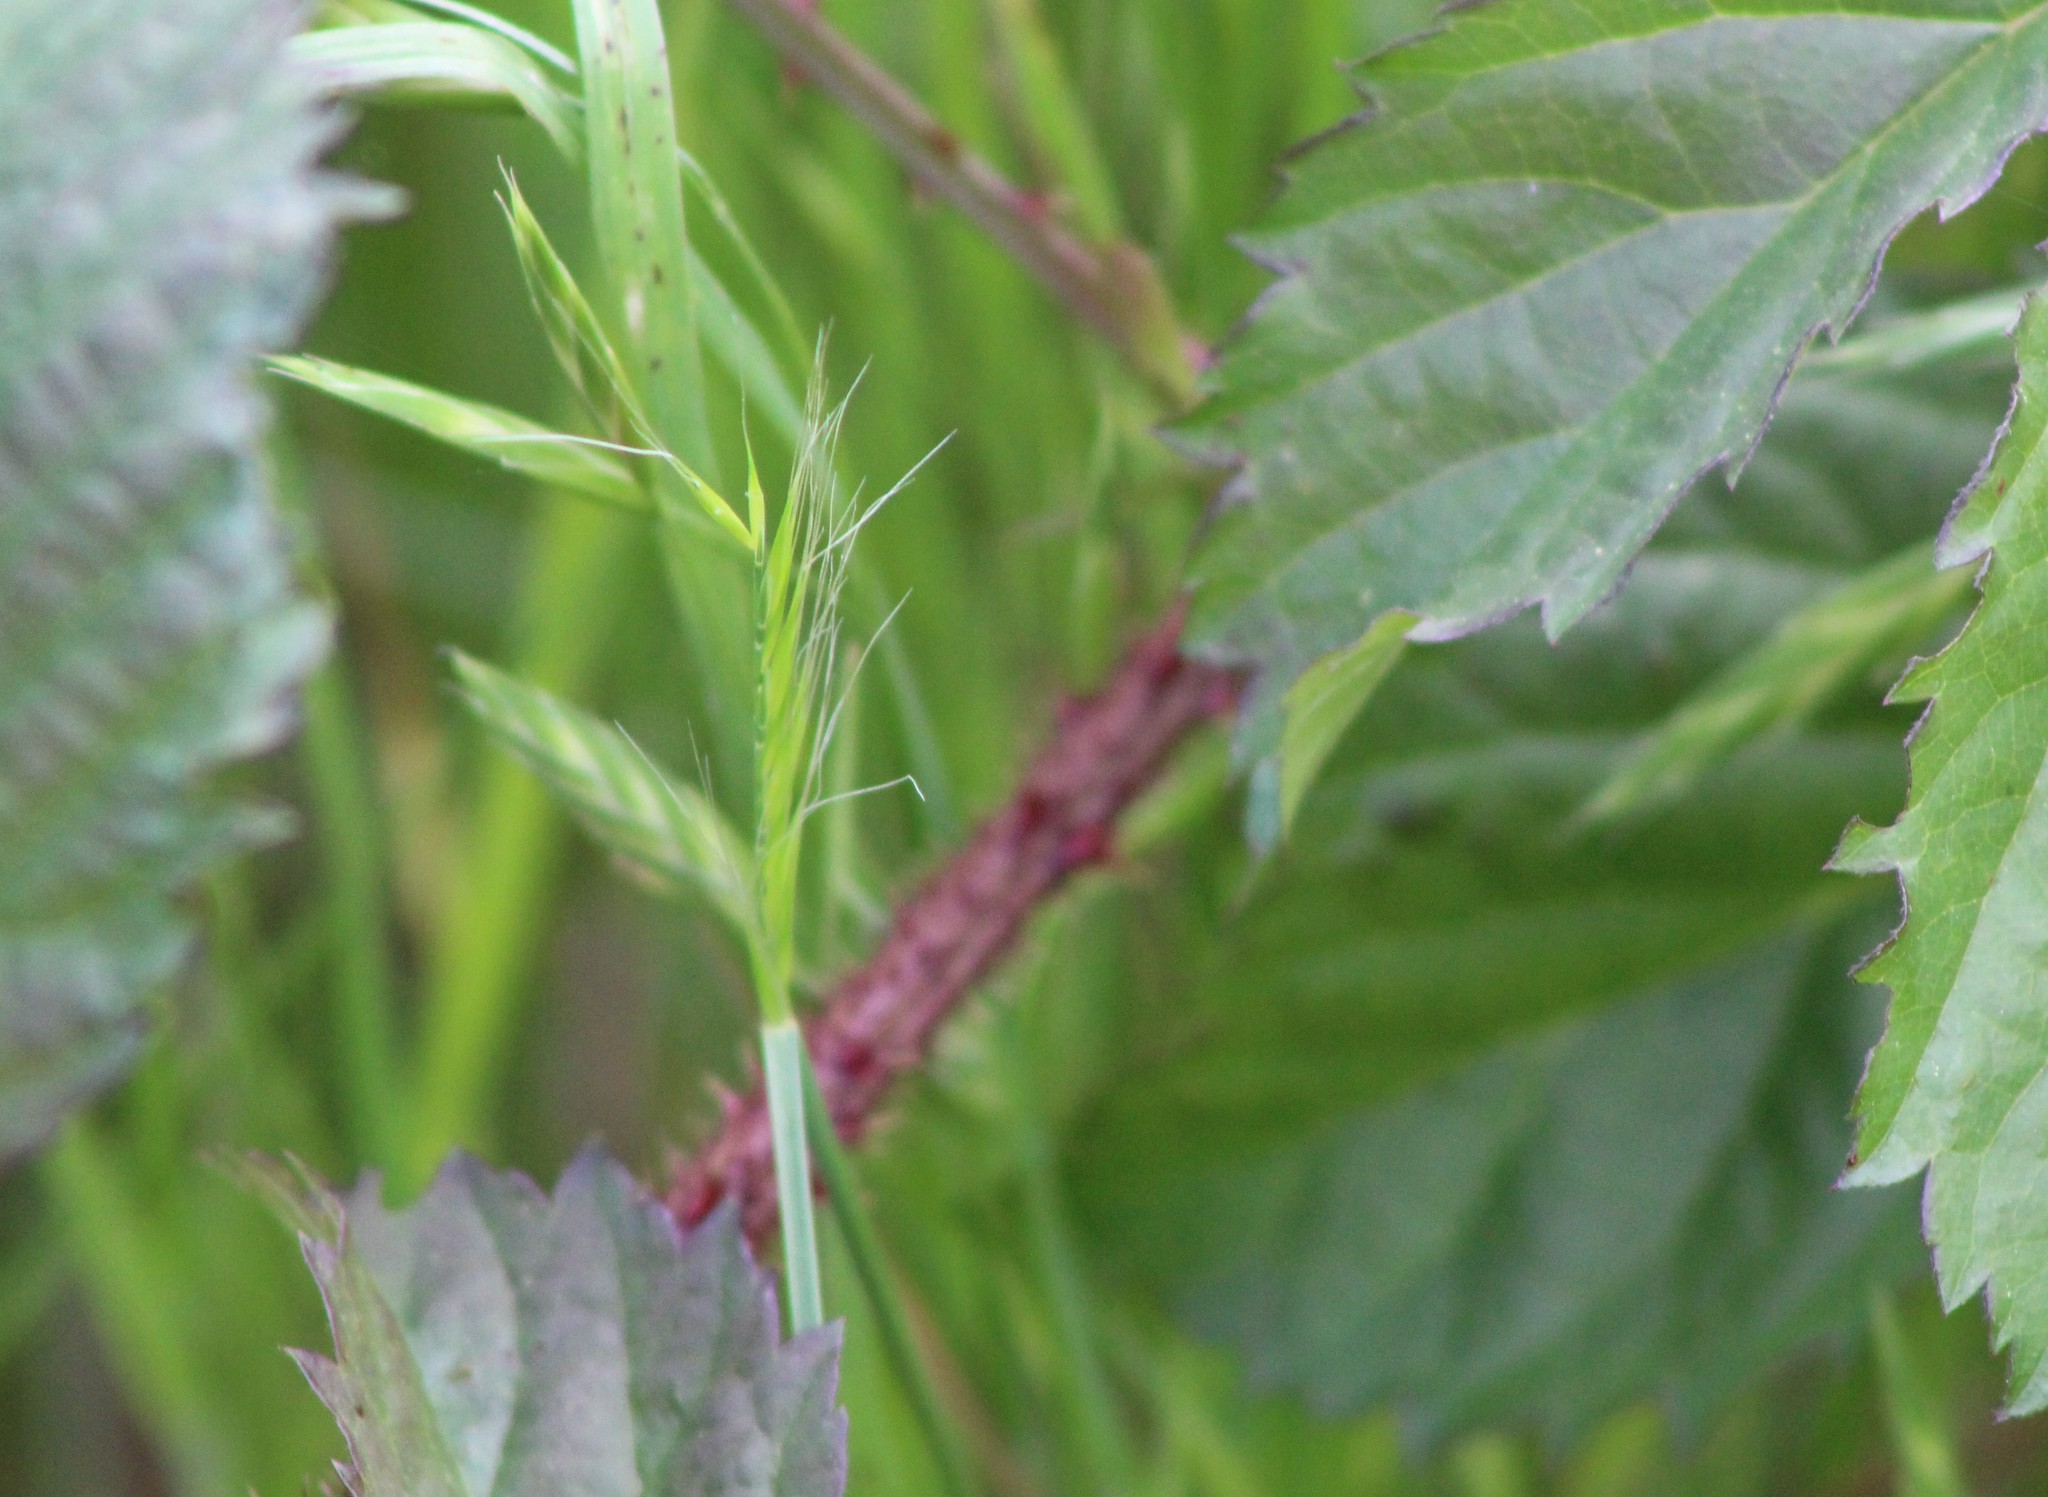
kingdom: Plantae
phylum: Tracheophyta
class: Magnoliopsida
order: Rosales
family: Rosaceae
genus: Rubus
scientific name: Rubus trivialis
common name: Southern dewberry
